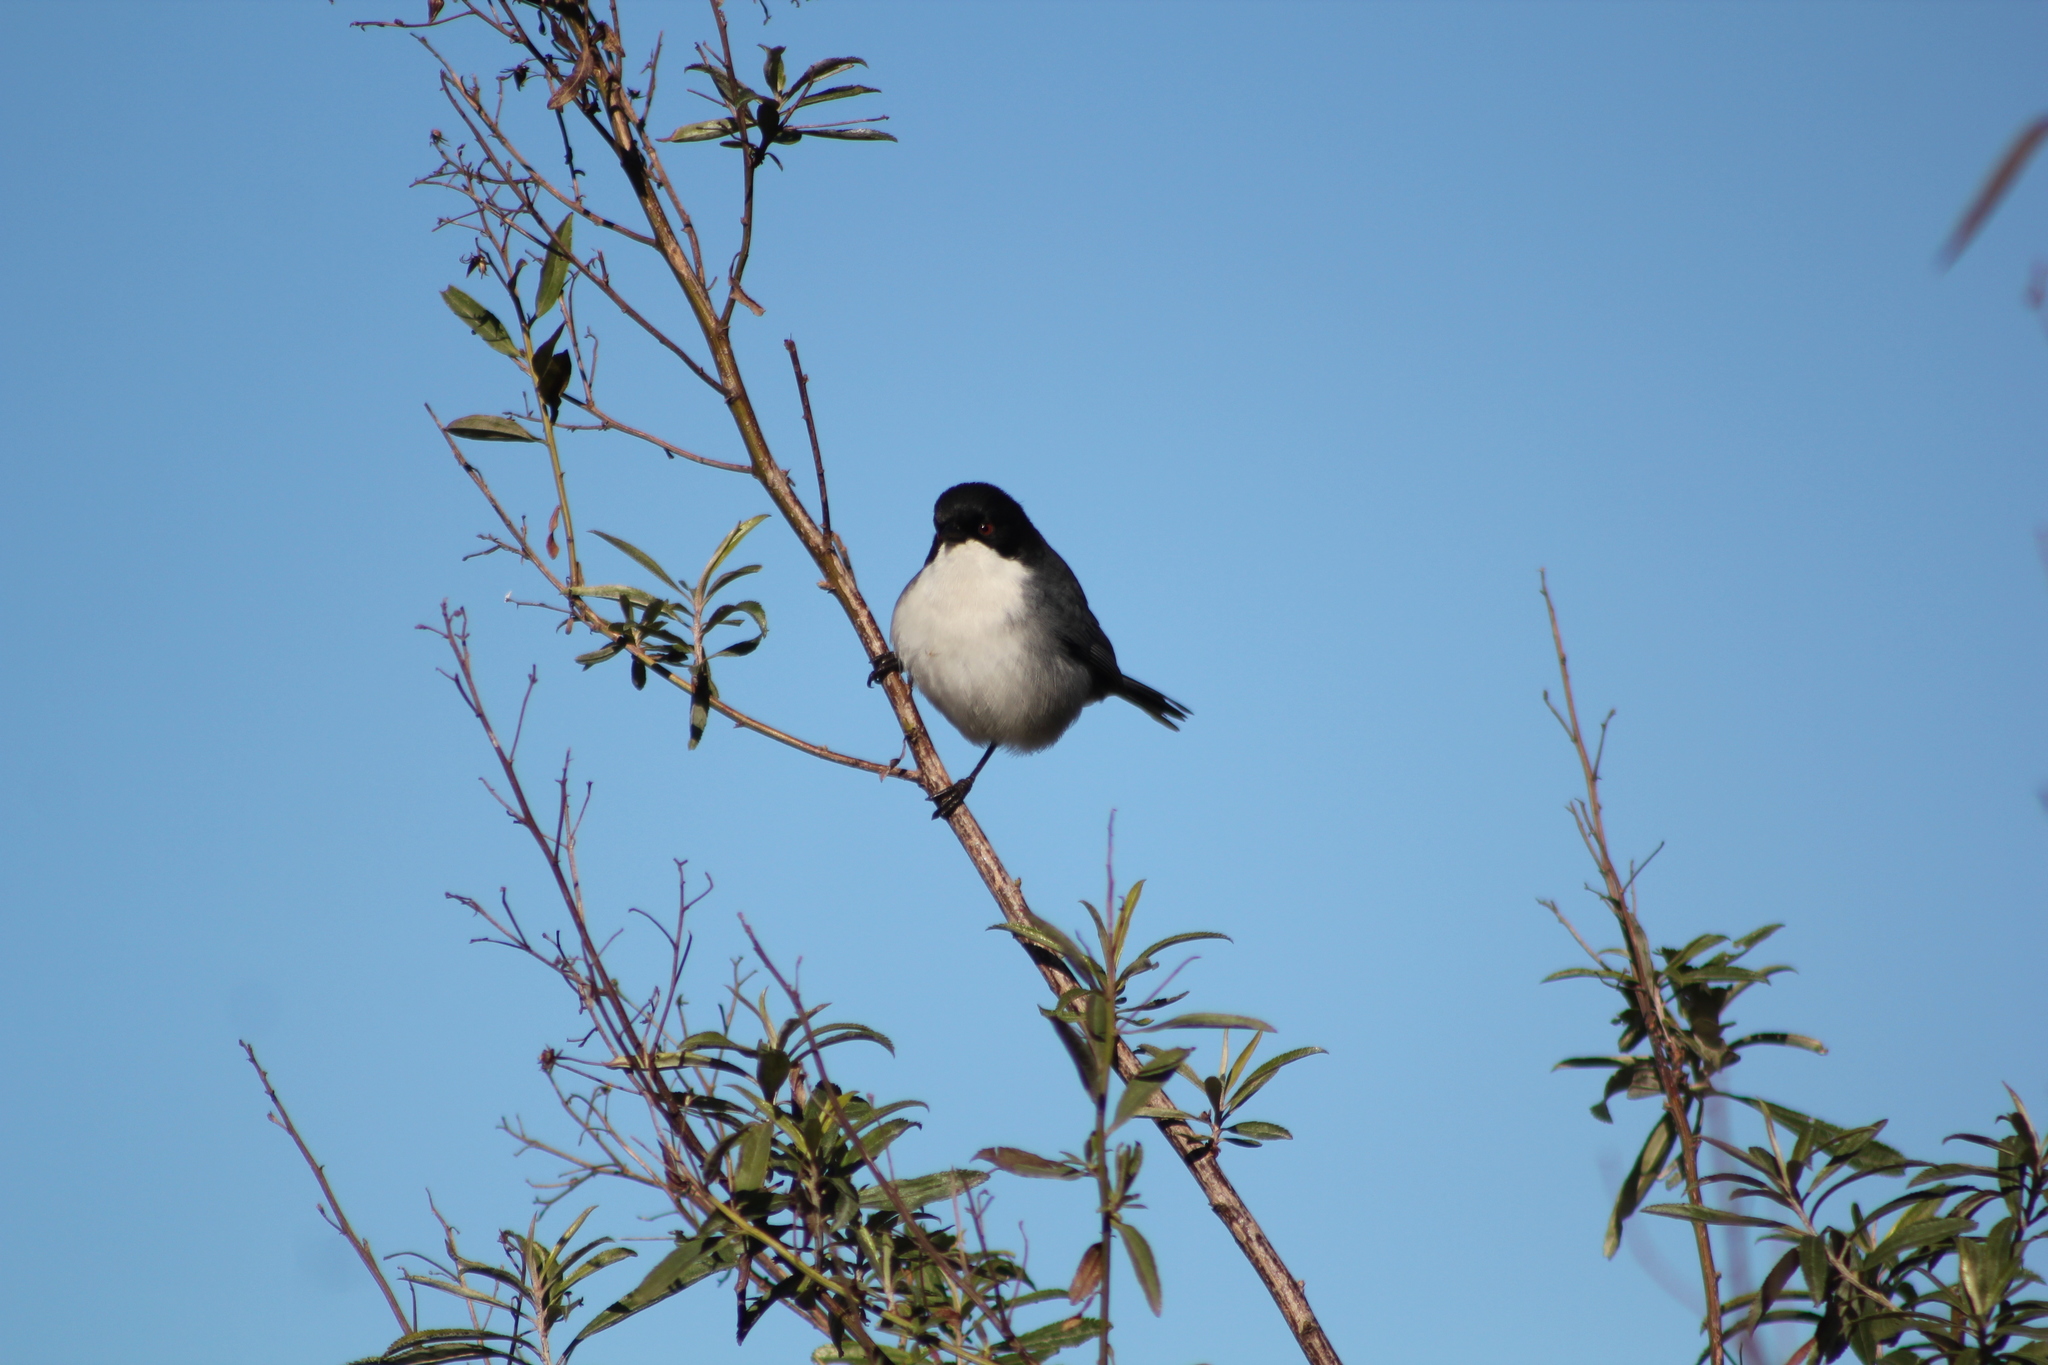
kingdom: Animalia
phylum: Chordata
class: Aves
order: Passeriformes
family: Thraupidae
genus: Microspingus
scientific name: Microspingus melanoleucus
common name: Black-capped warbling-finch
